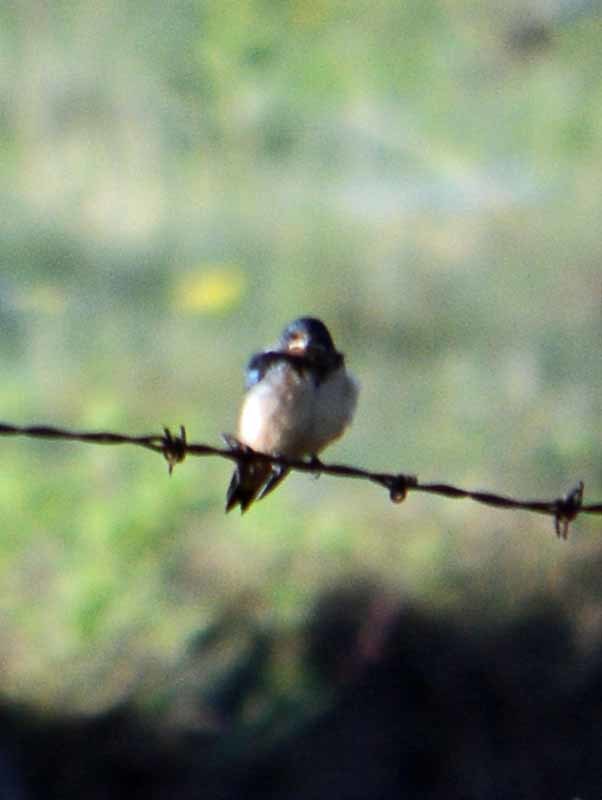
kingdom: Animalia
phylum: Chordata
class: Aves
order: Passeriformes
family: Hirundinidae
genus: Hirundo
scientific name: Hirundo rustica
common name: Barn swallow
